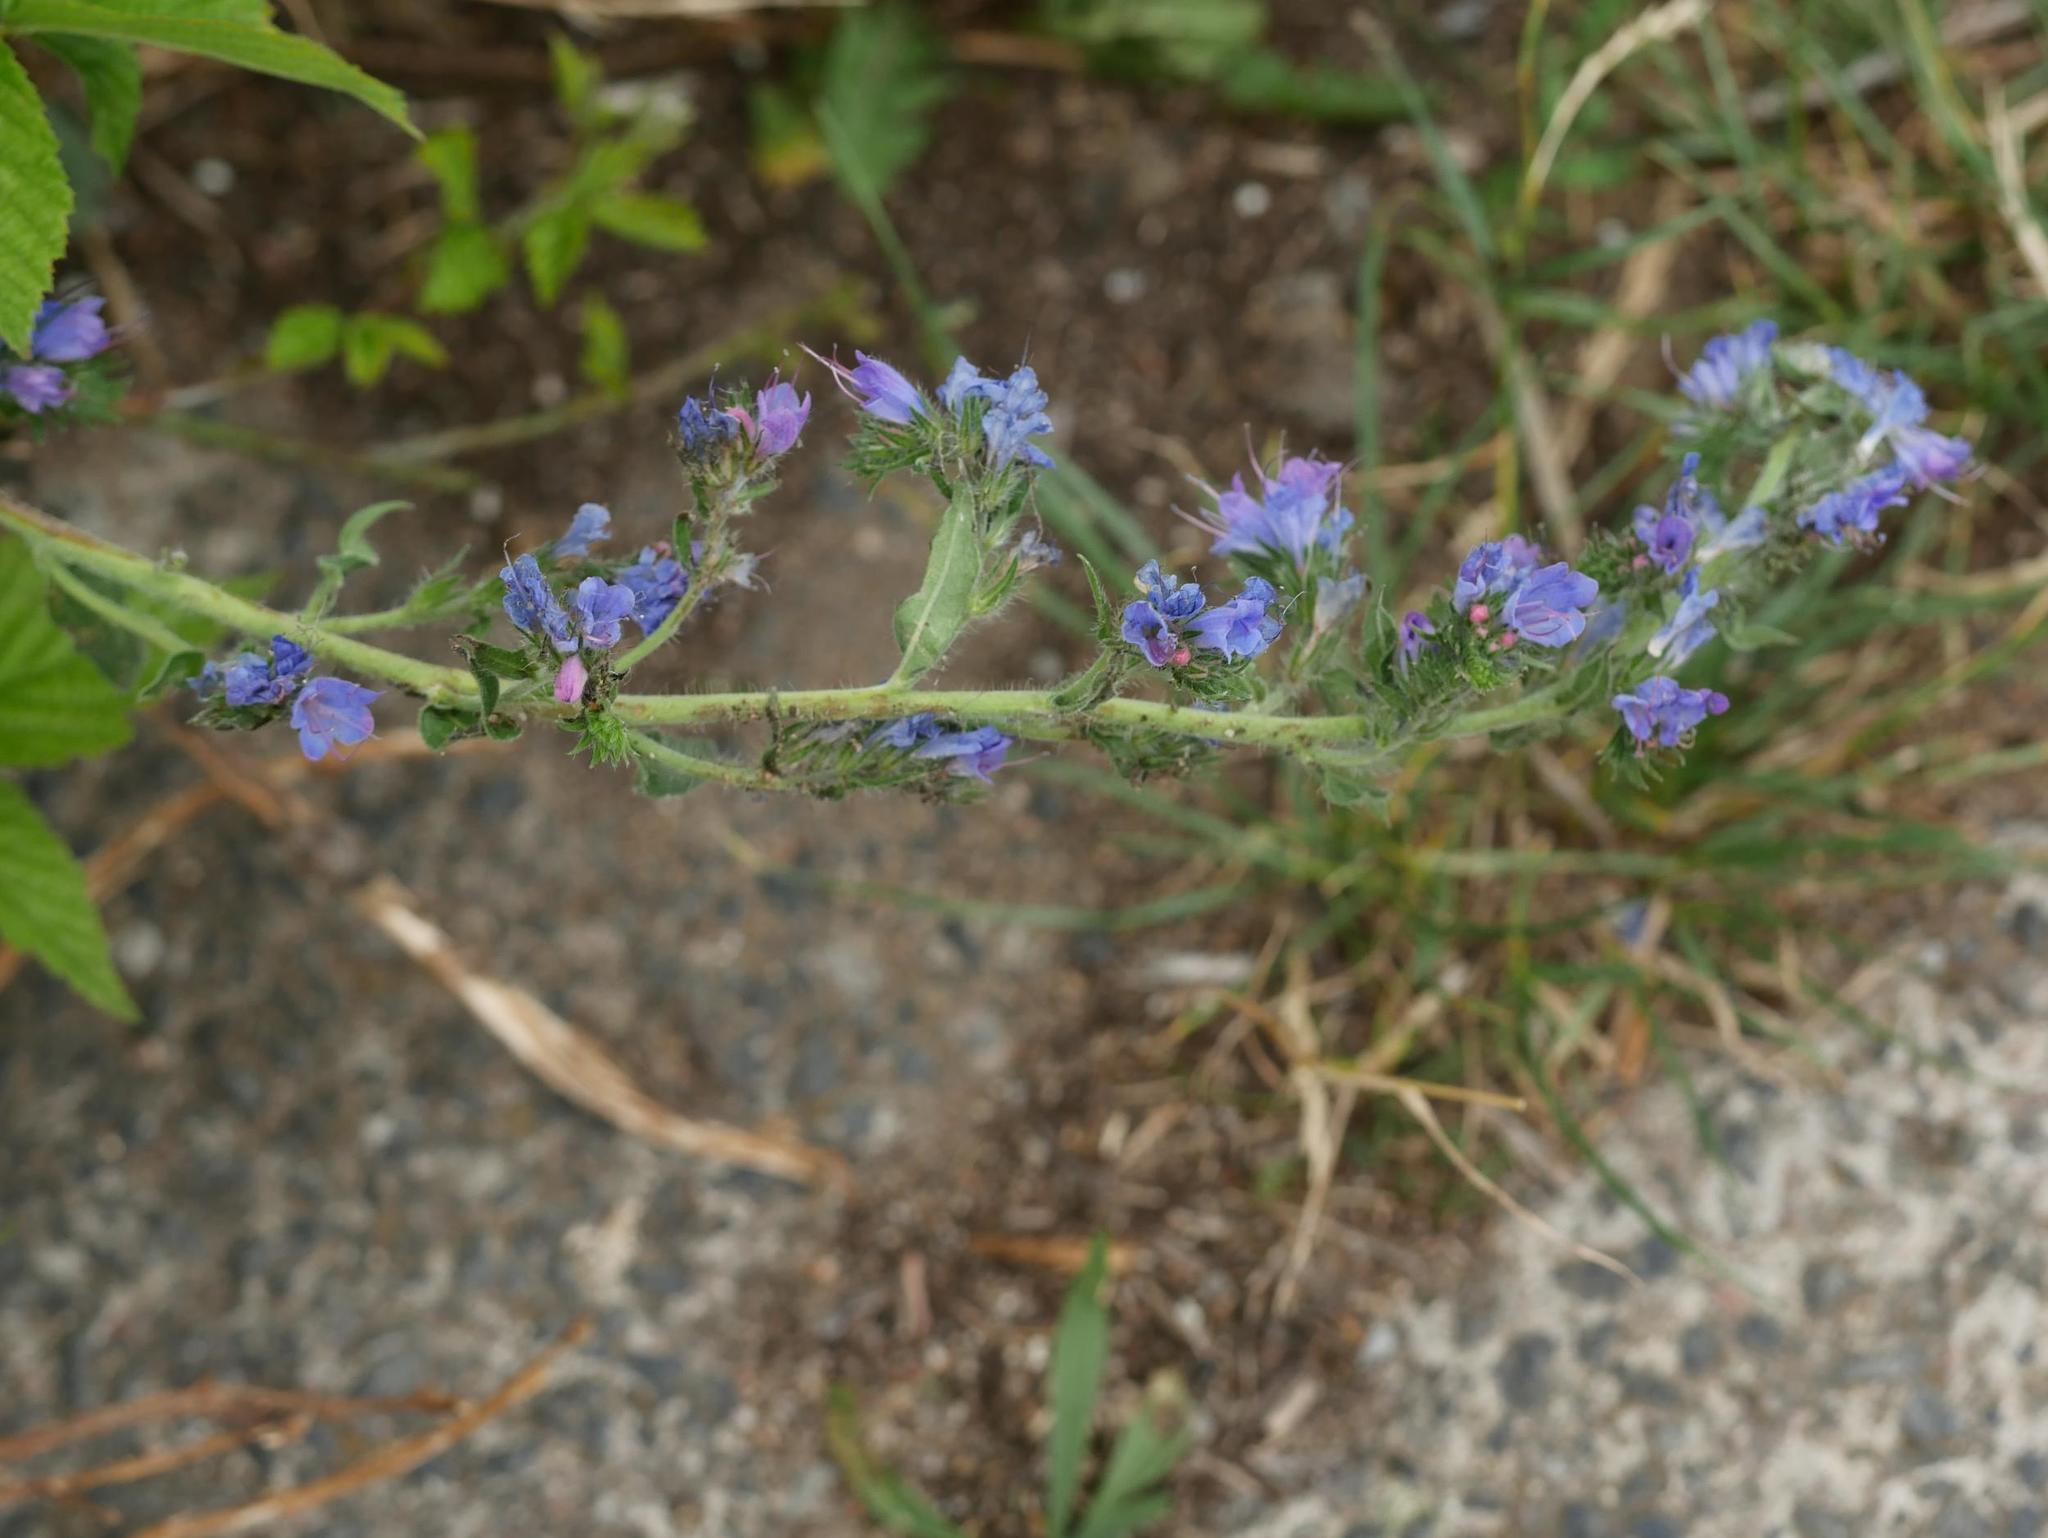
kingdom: Plantae
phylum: Tracheophyta
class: Magnoliopsida
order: Boraginales
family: Boraginaceae
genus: Echium
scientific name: Echium vulgare
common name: Common viper's bugloss
